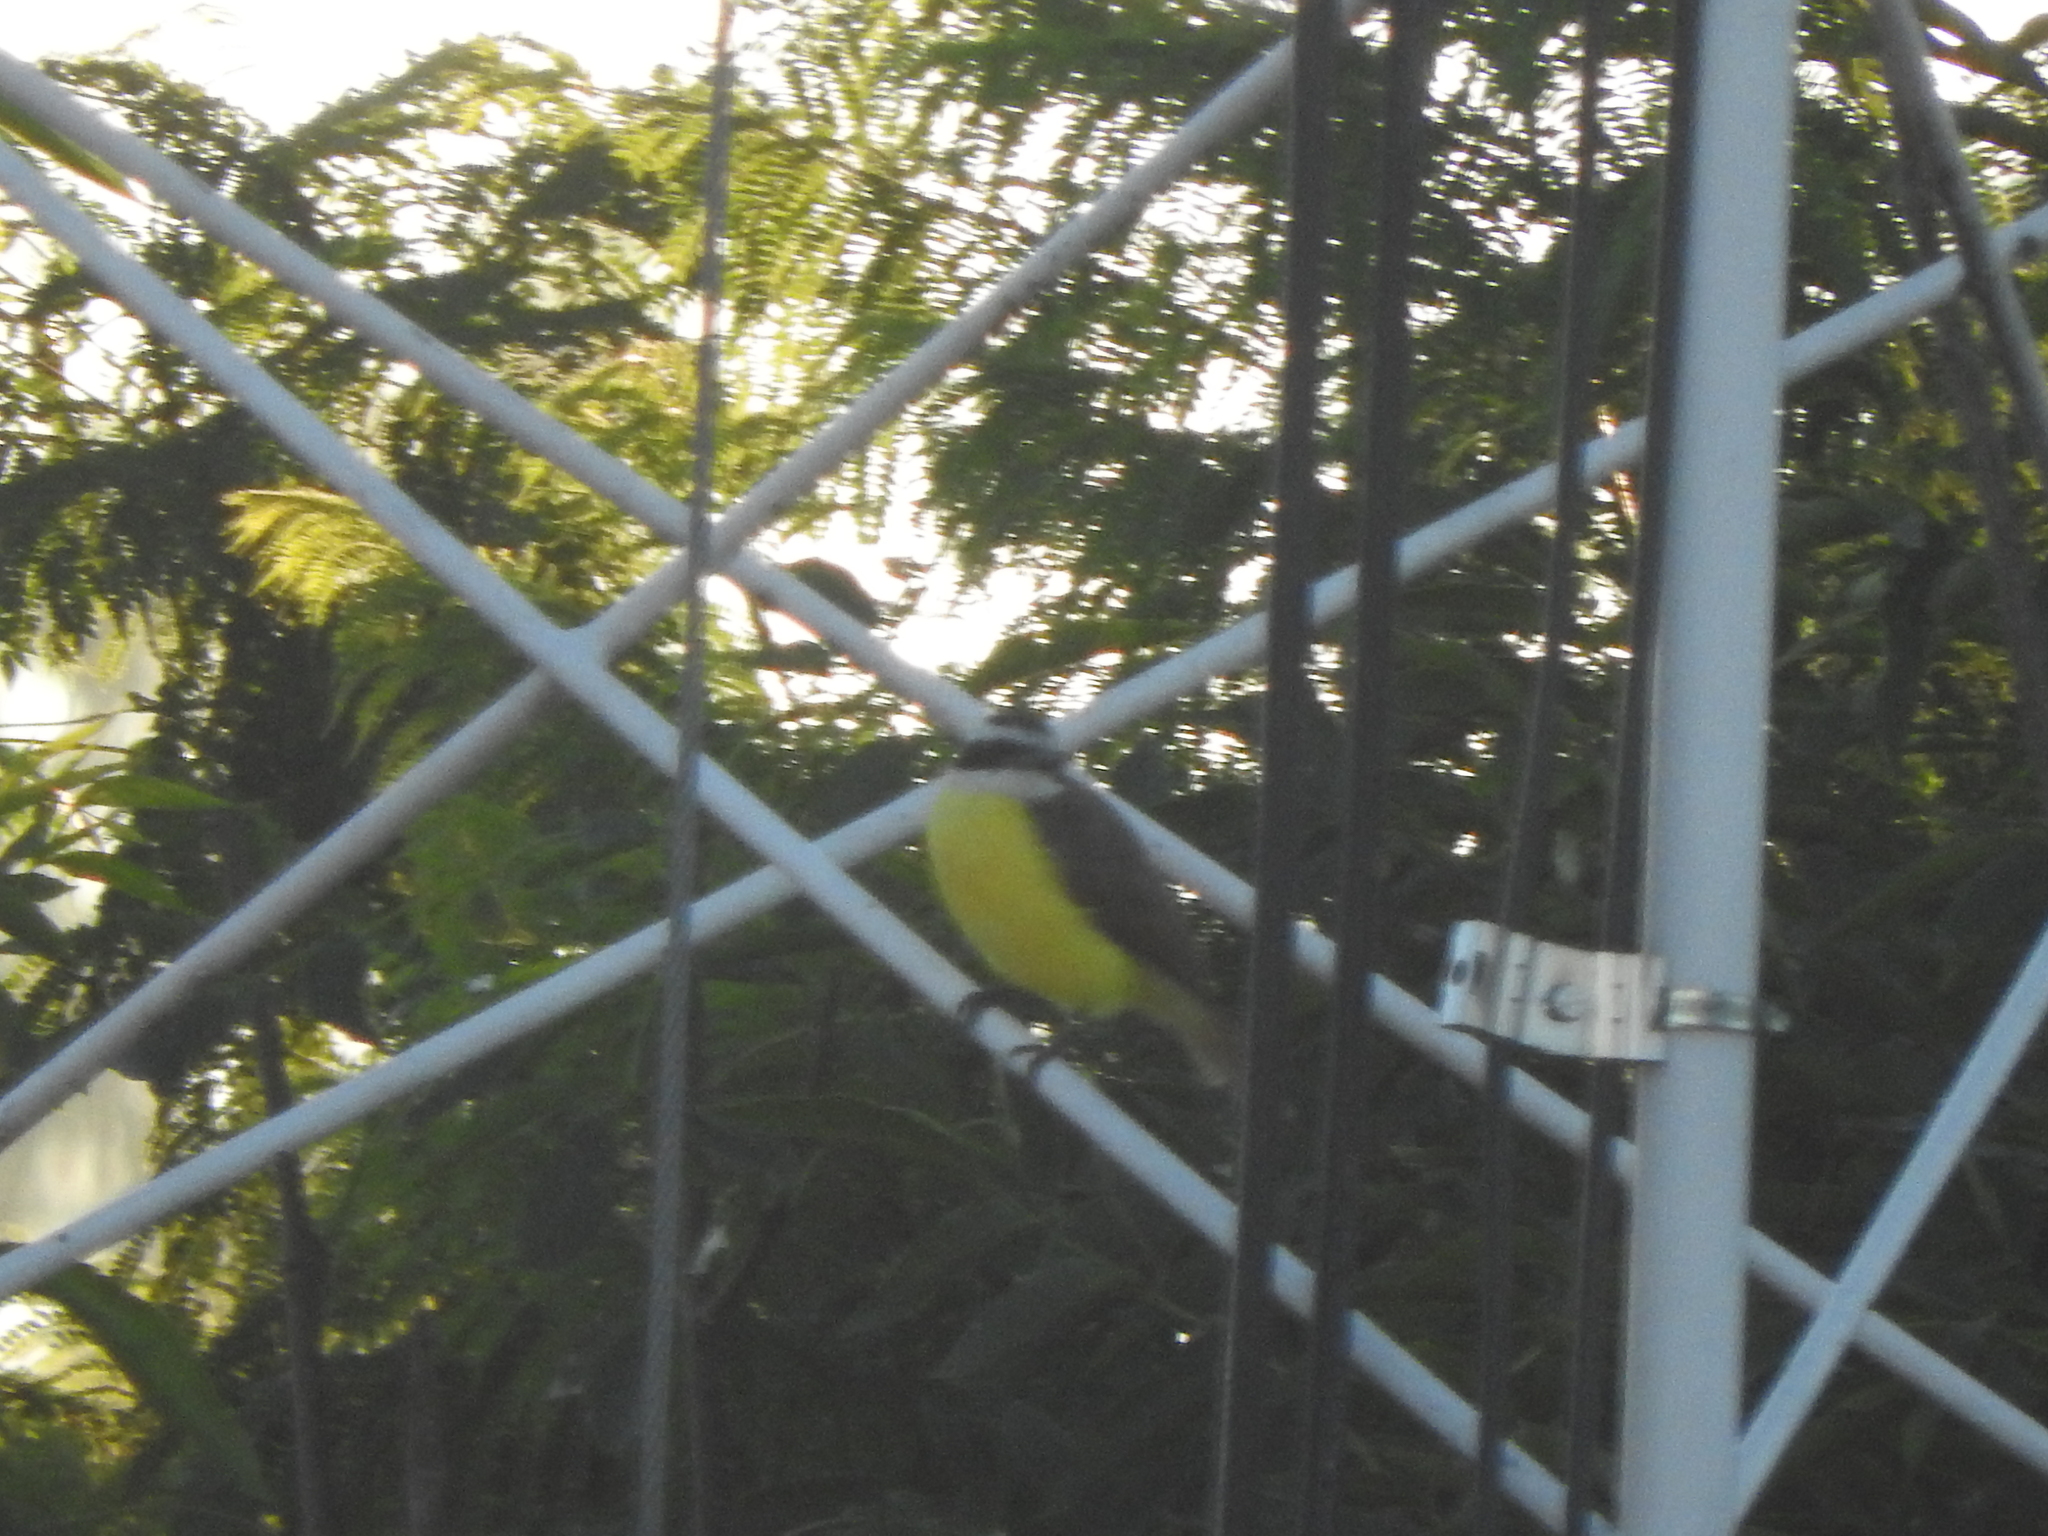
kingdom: Animalia
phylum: Chordata
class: Aves
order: Passeriformes
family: Tyrannidae
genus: Pitangus
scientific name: Pitangus sulphuratus
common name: Great kiskadee
